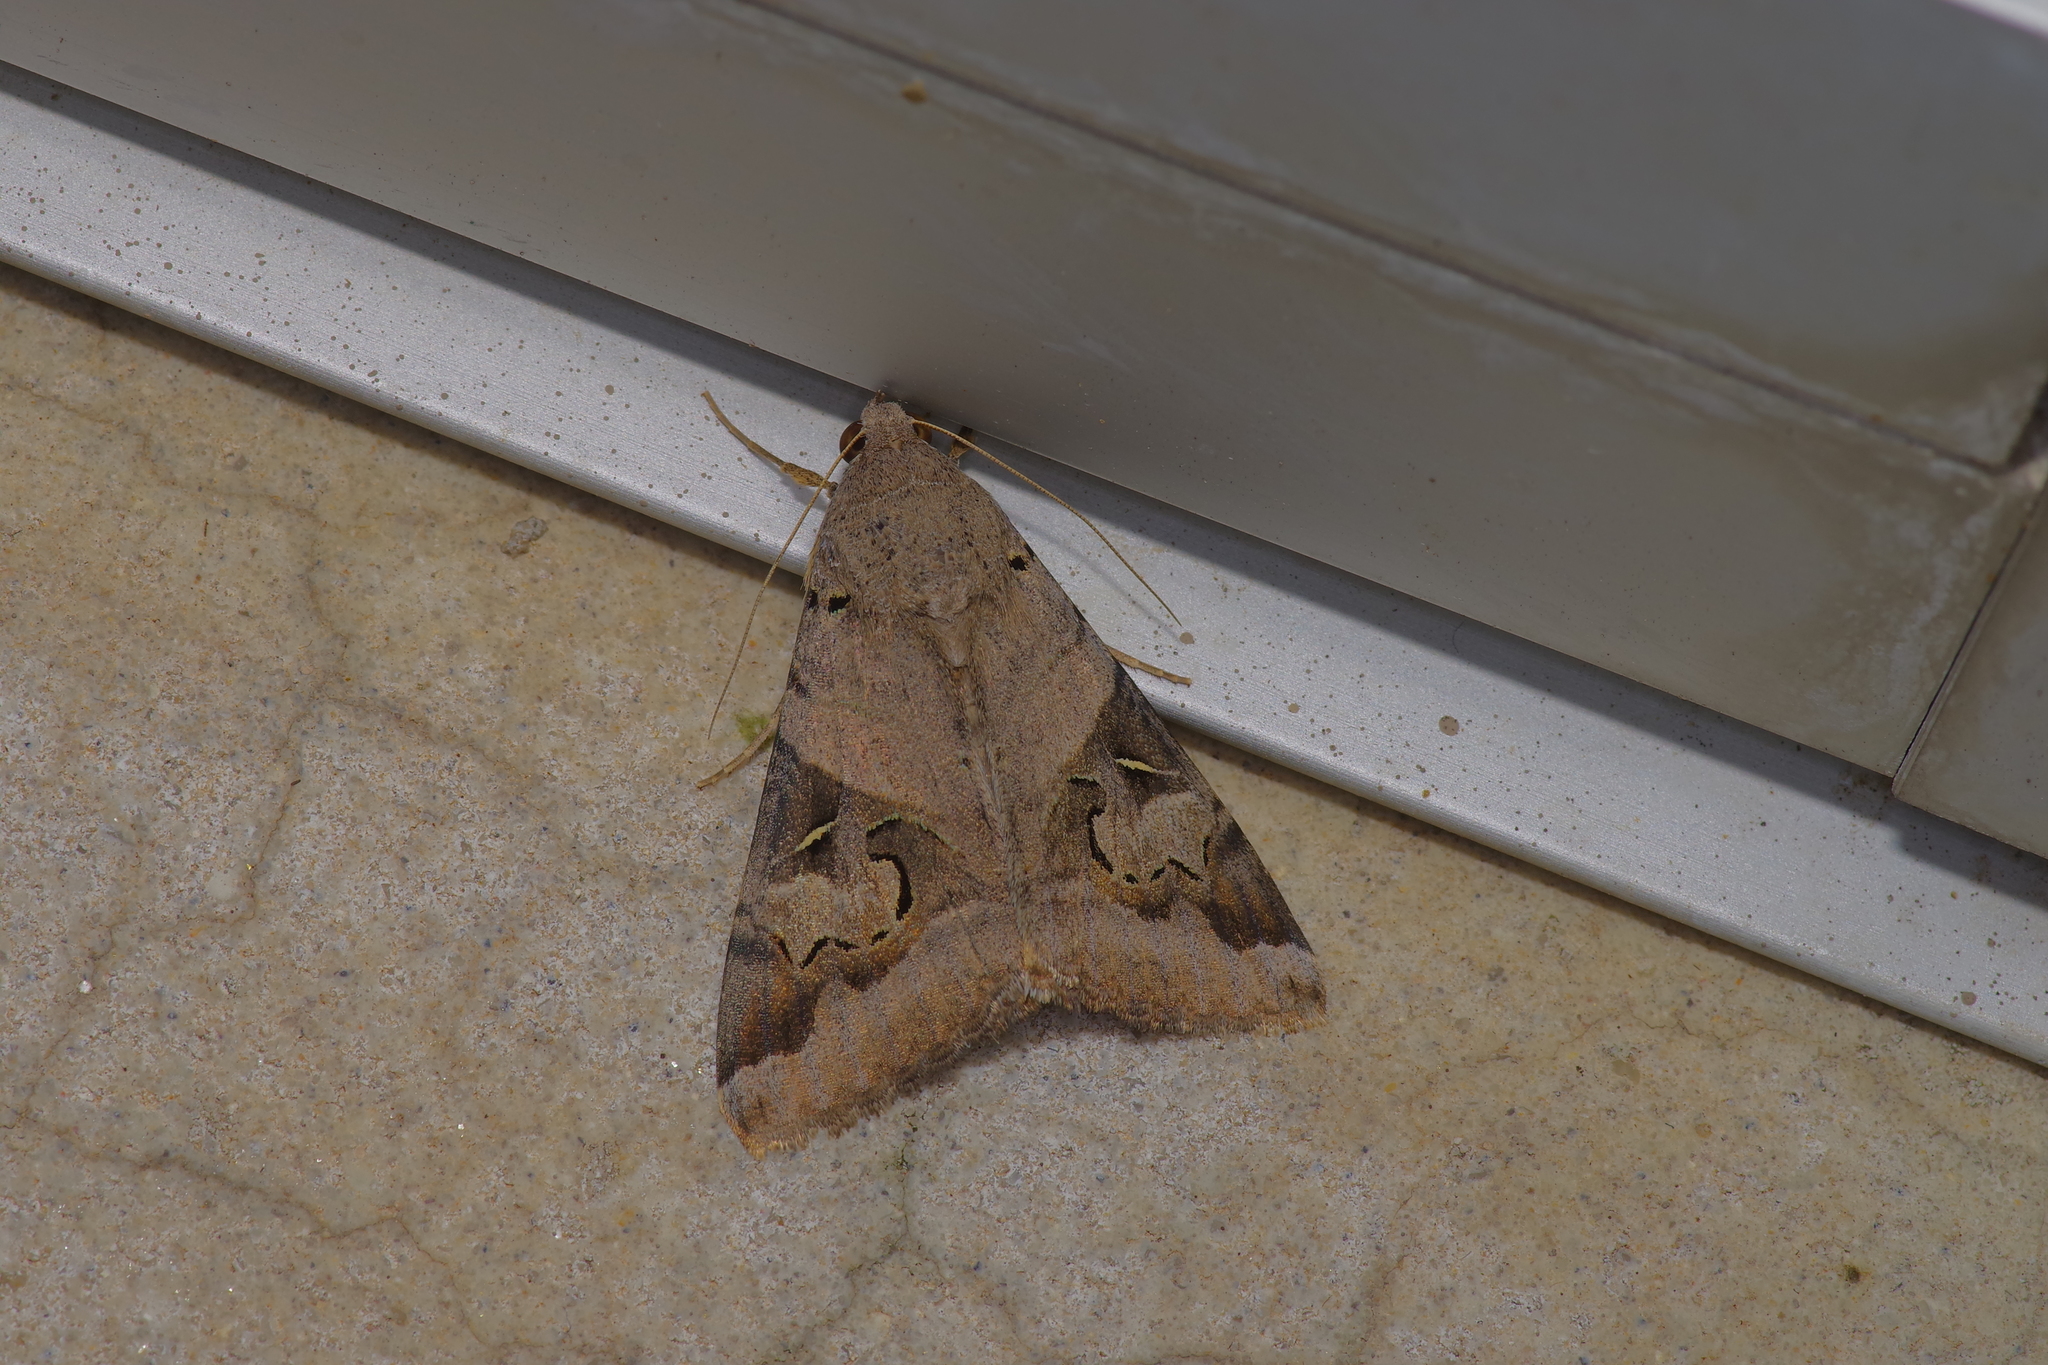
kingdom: Animalia
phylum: Arthropoda
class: Insecta
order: Lepidoptera
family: Erebidae
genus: Melipotis
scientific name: Melipotis indomita
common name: Moth
